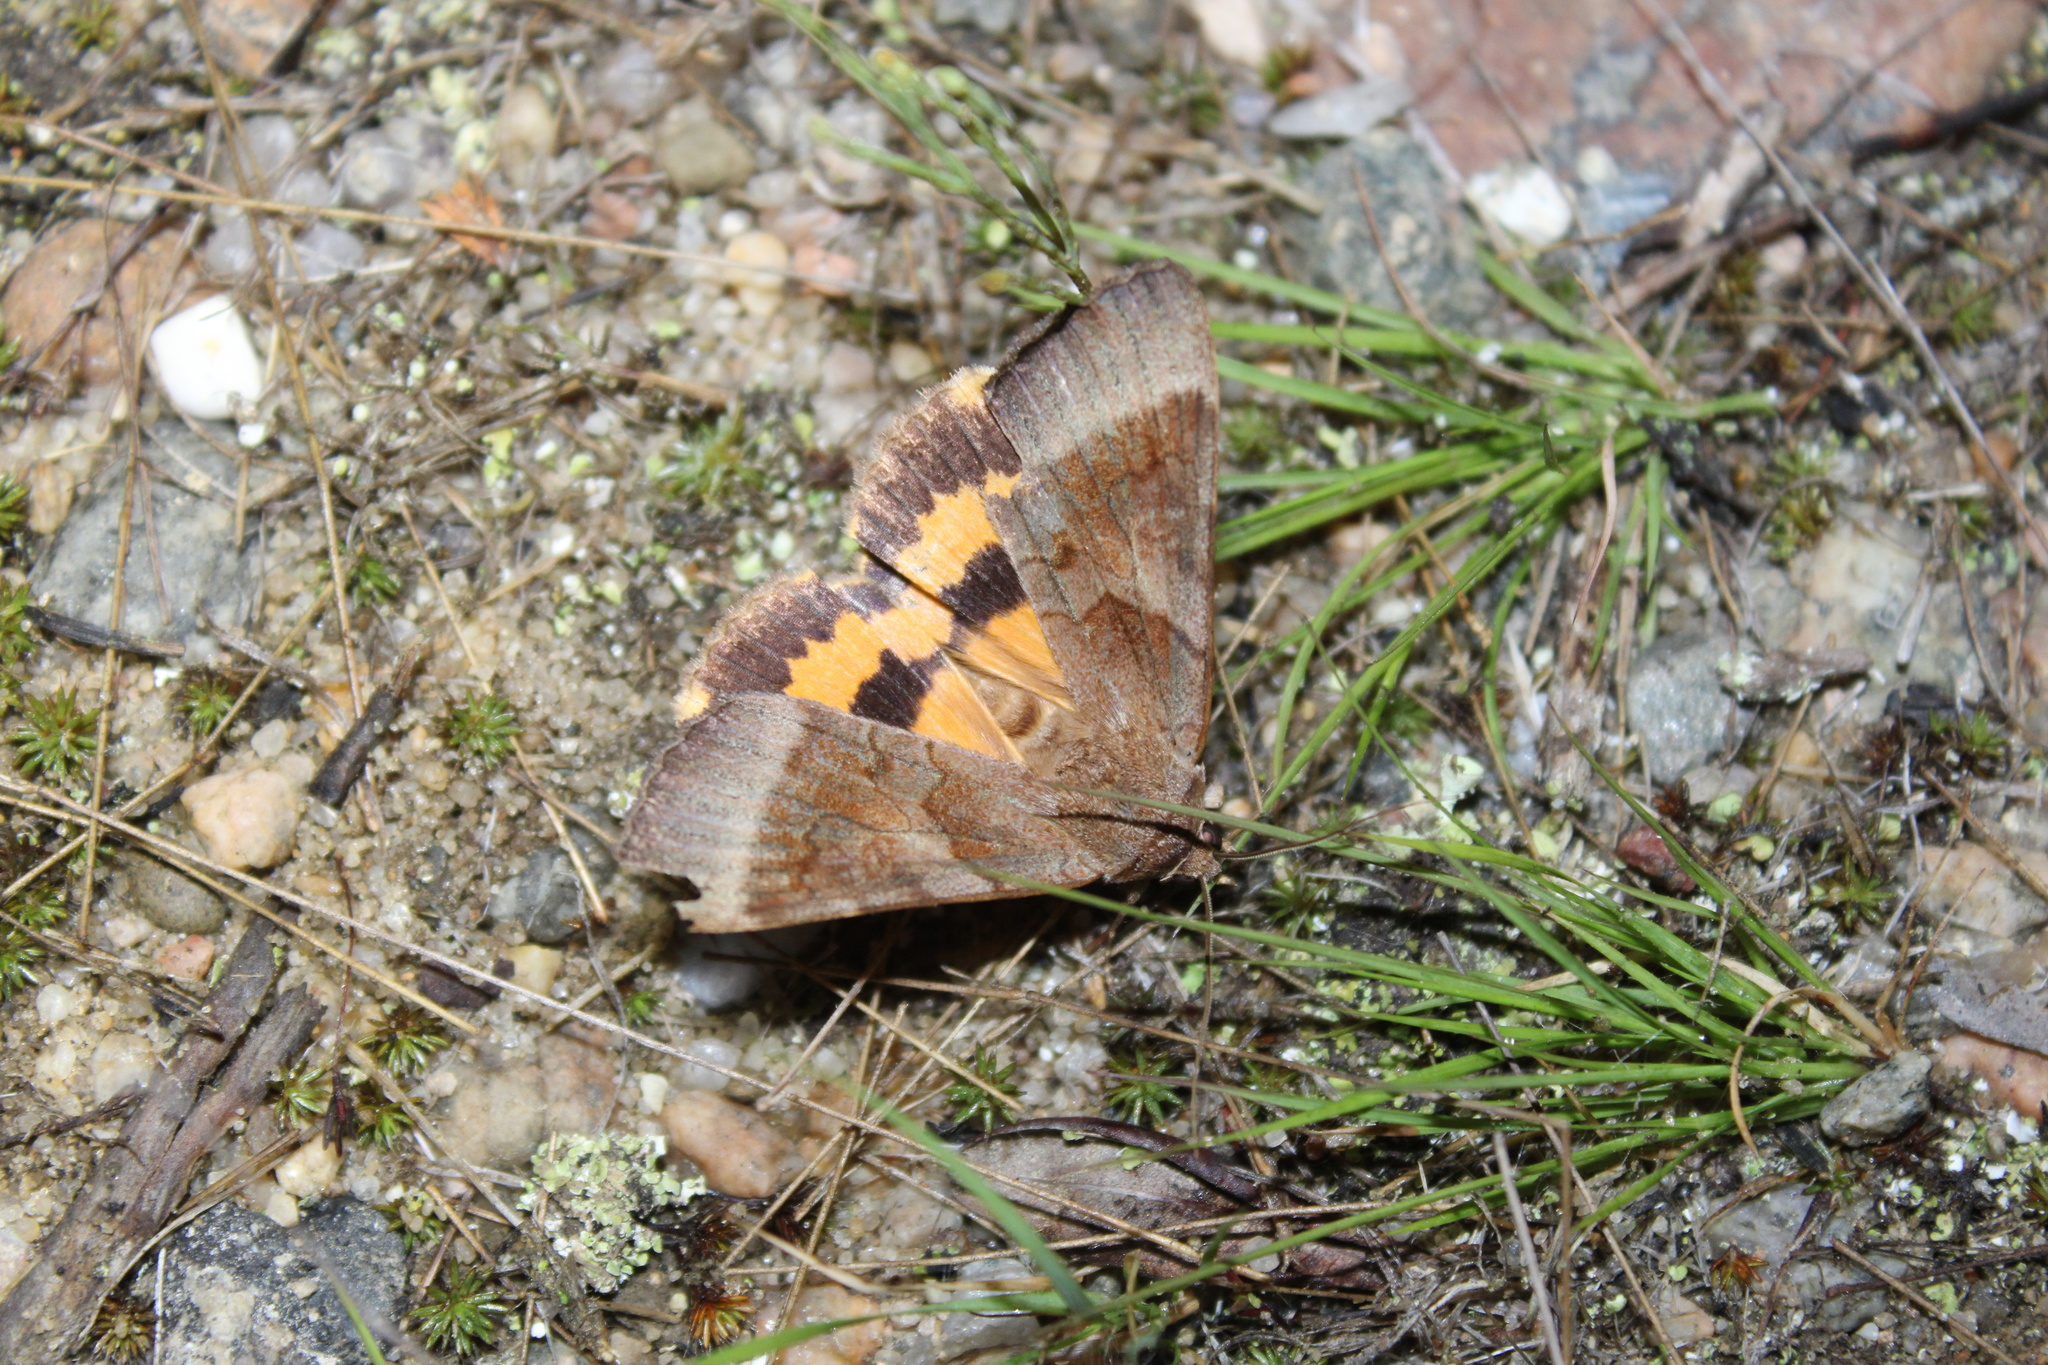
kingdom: Animalia
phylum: Arthropoda
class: Insecta
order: Lepidoptera
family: Erebidae
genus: Catocala
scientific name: Catocala badia
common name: Bay underwing
